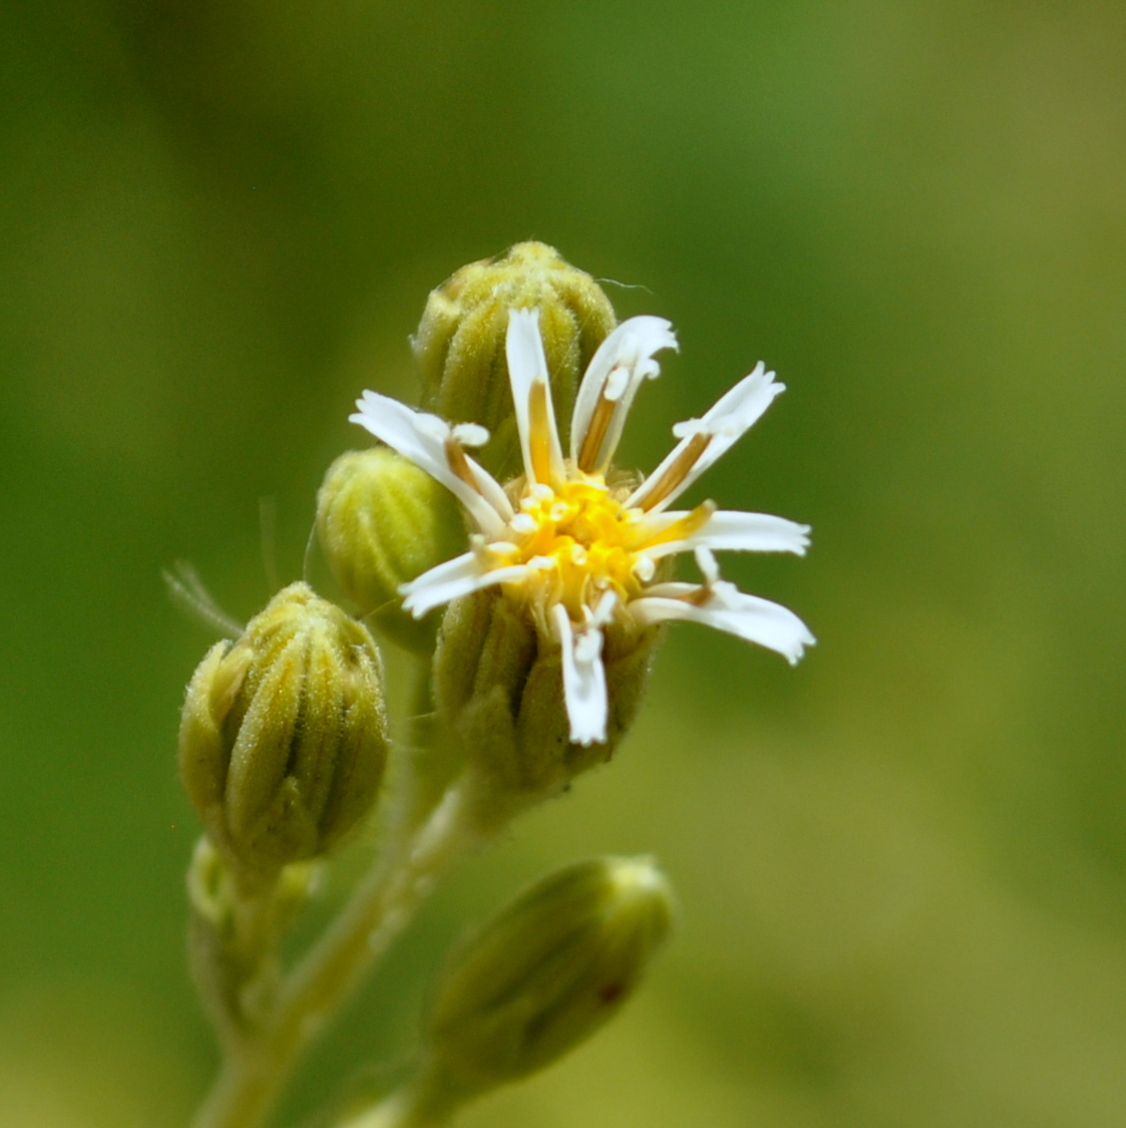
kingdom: Plantae
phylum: Tracheophyta
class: Magnoliopsida
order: Asterales
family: Asteraceae
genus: Jungia
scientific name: Jungia floribunda
